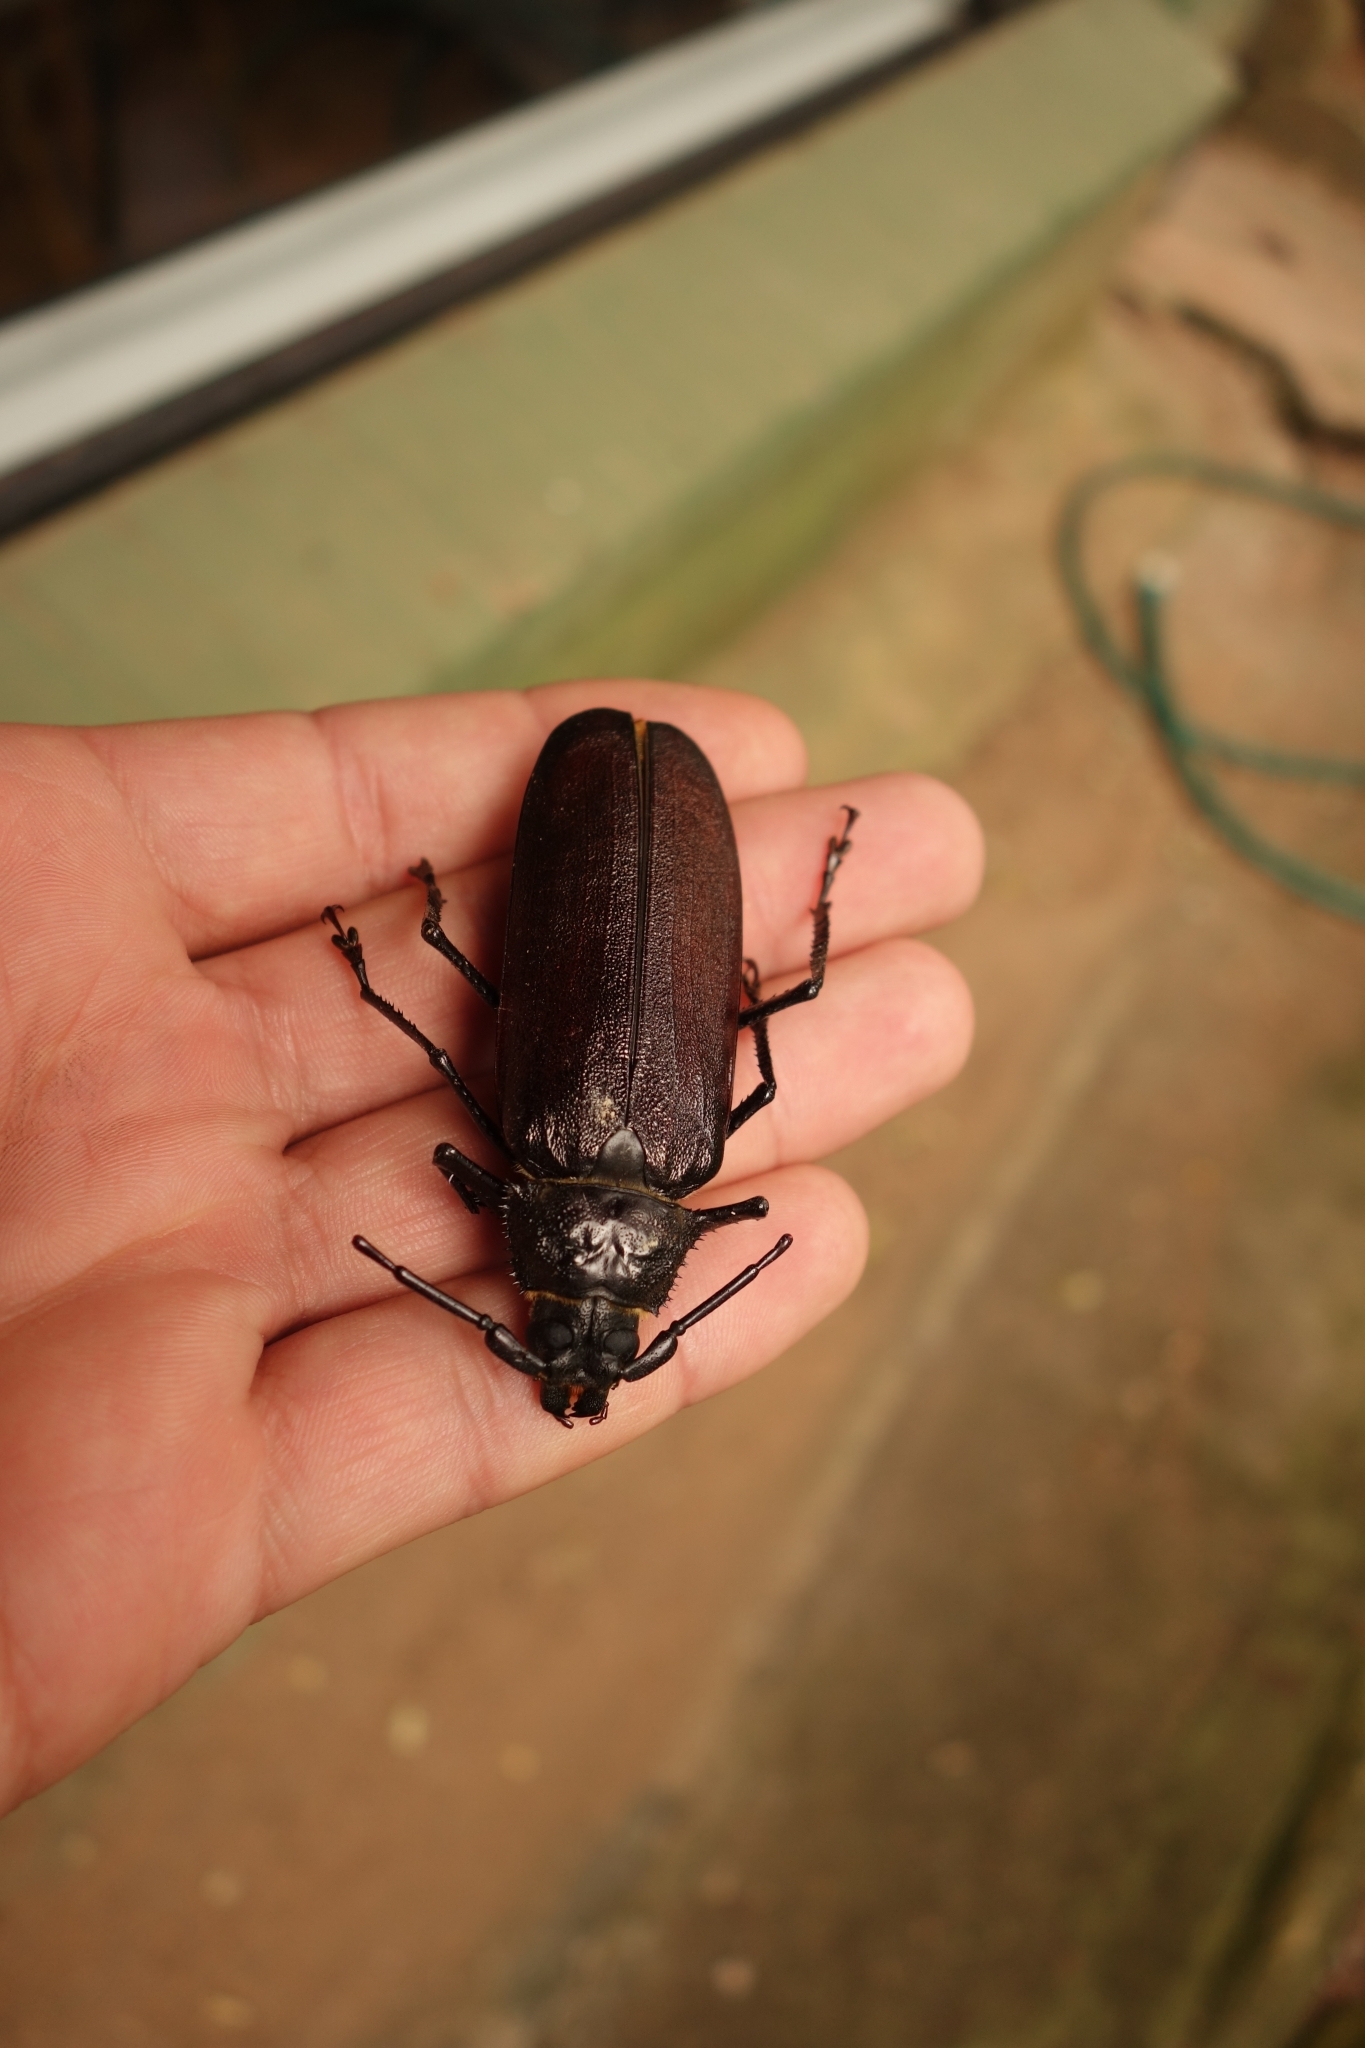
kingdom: Animalia
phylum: Arthropoda
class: Insecta
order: Coleoptera
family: Cerambycidae
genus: Macrotoma
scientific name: Macrotoma palmata
